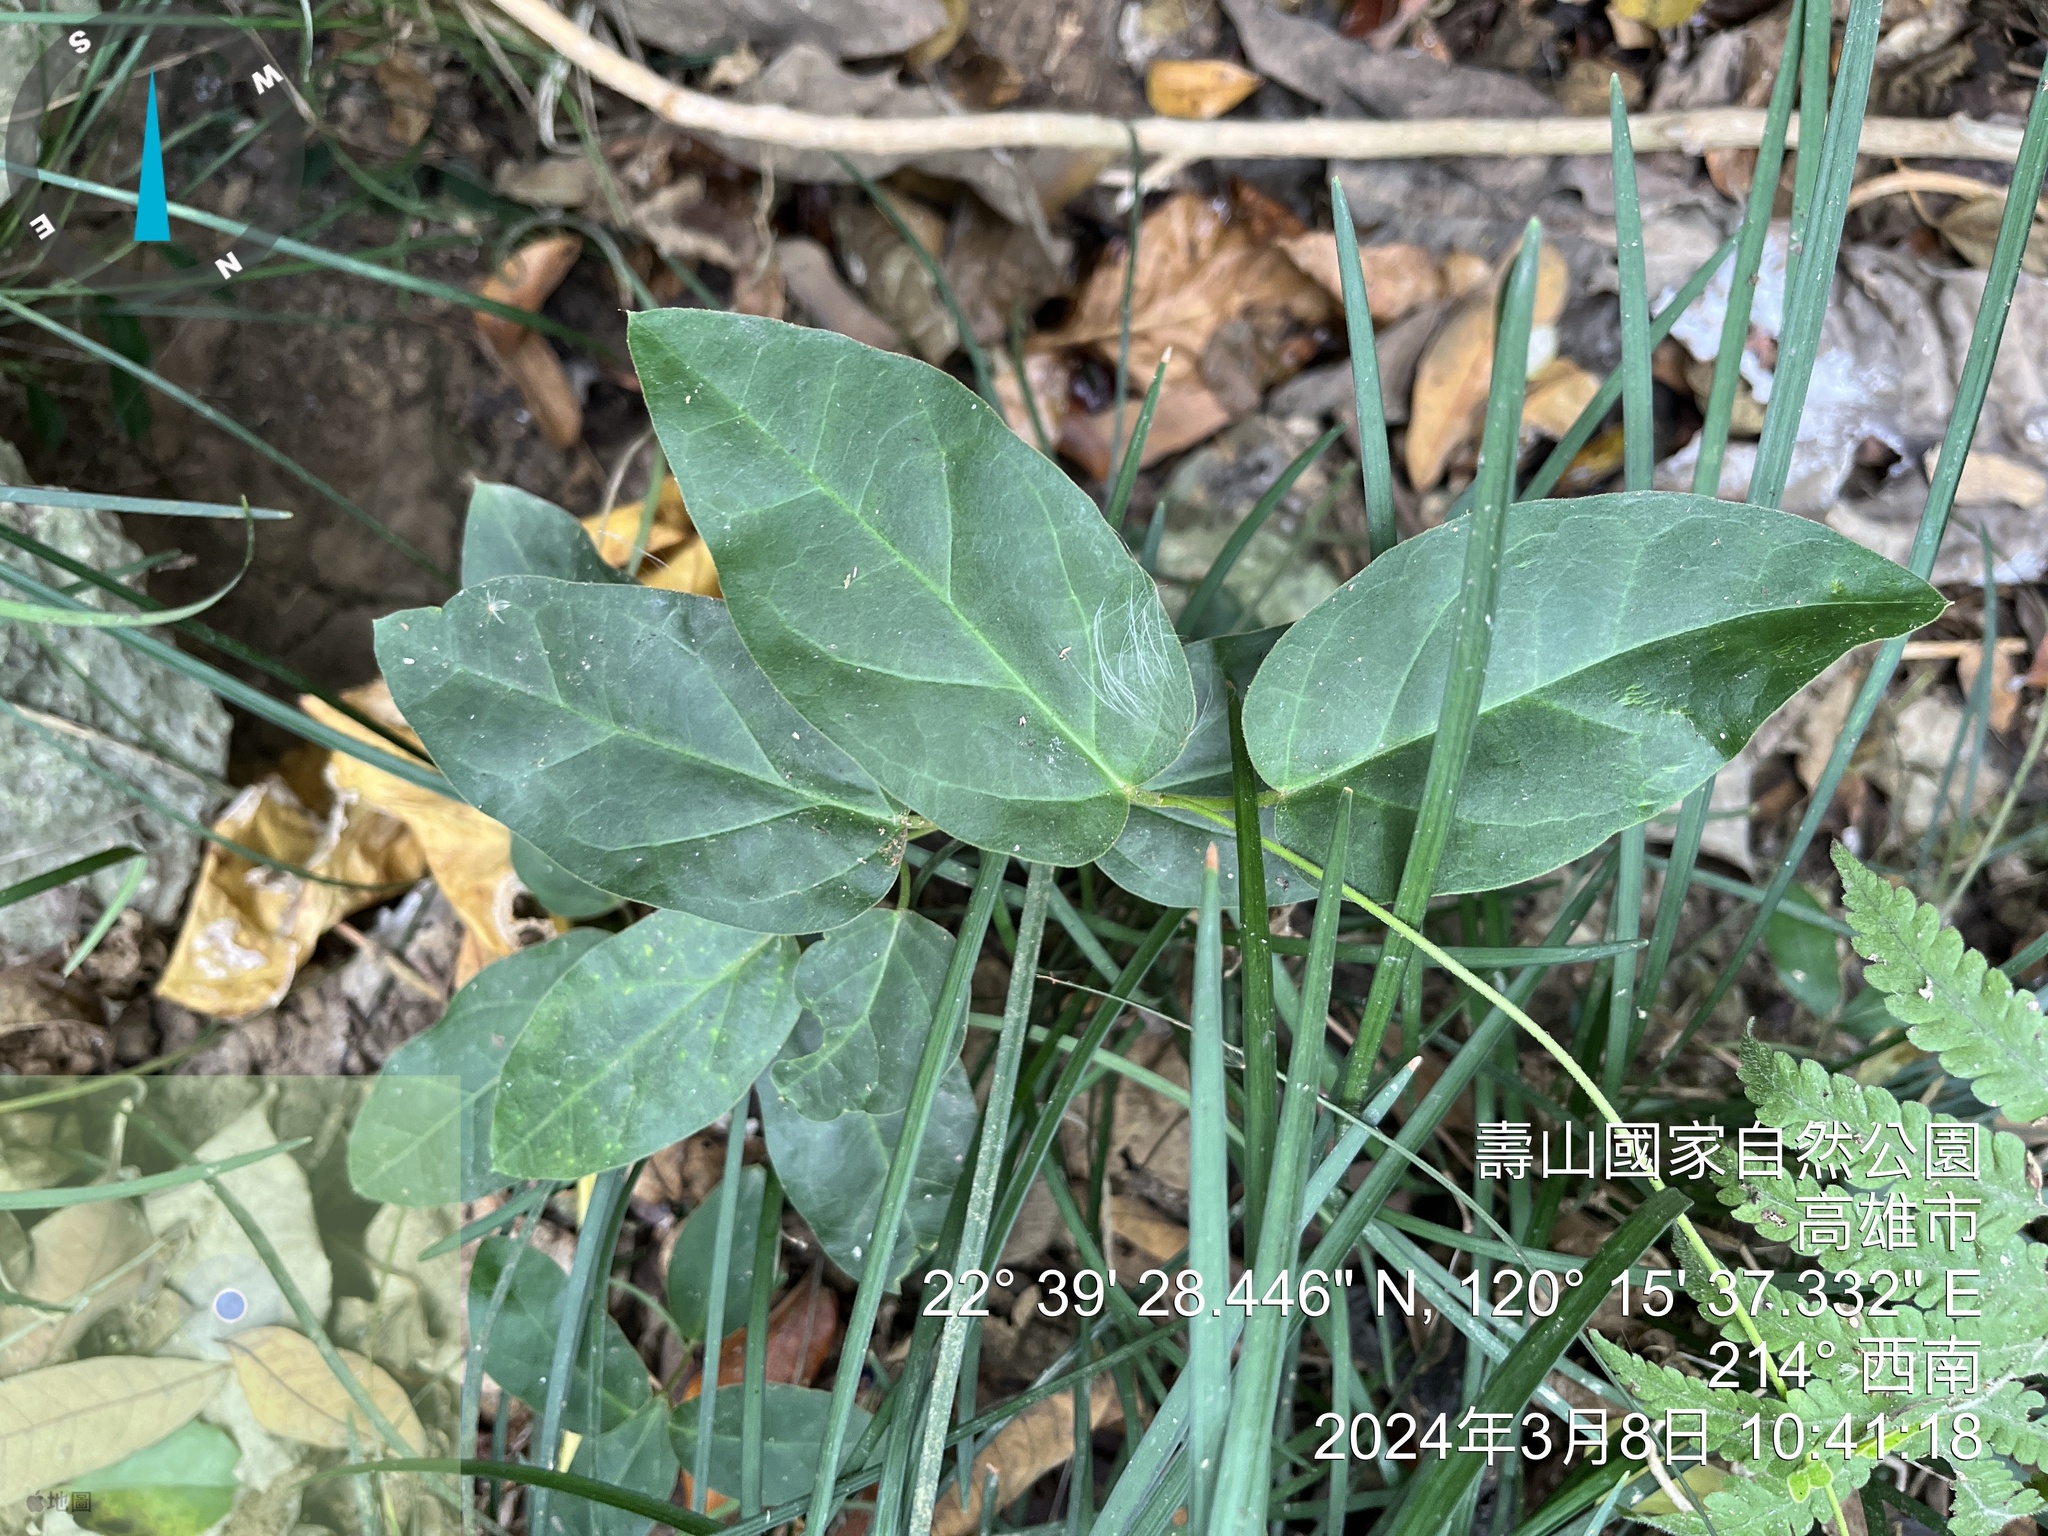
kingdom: Plantae
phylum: Tracheophyta
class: Magnoliopsida
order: Gentianales
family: Apocynaceae
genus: Vincetoxicum
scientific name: Vincetoxicum hirsutum
